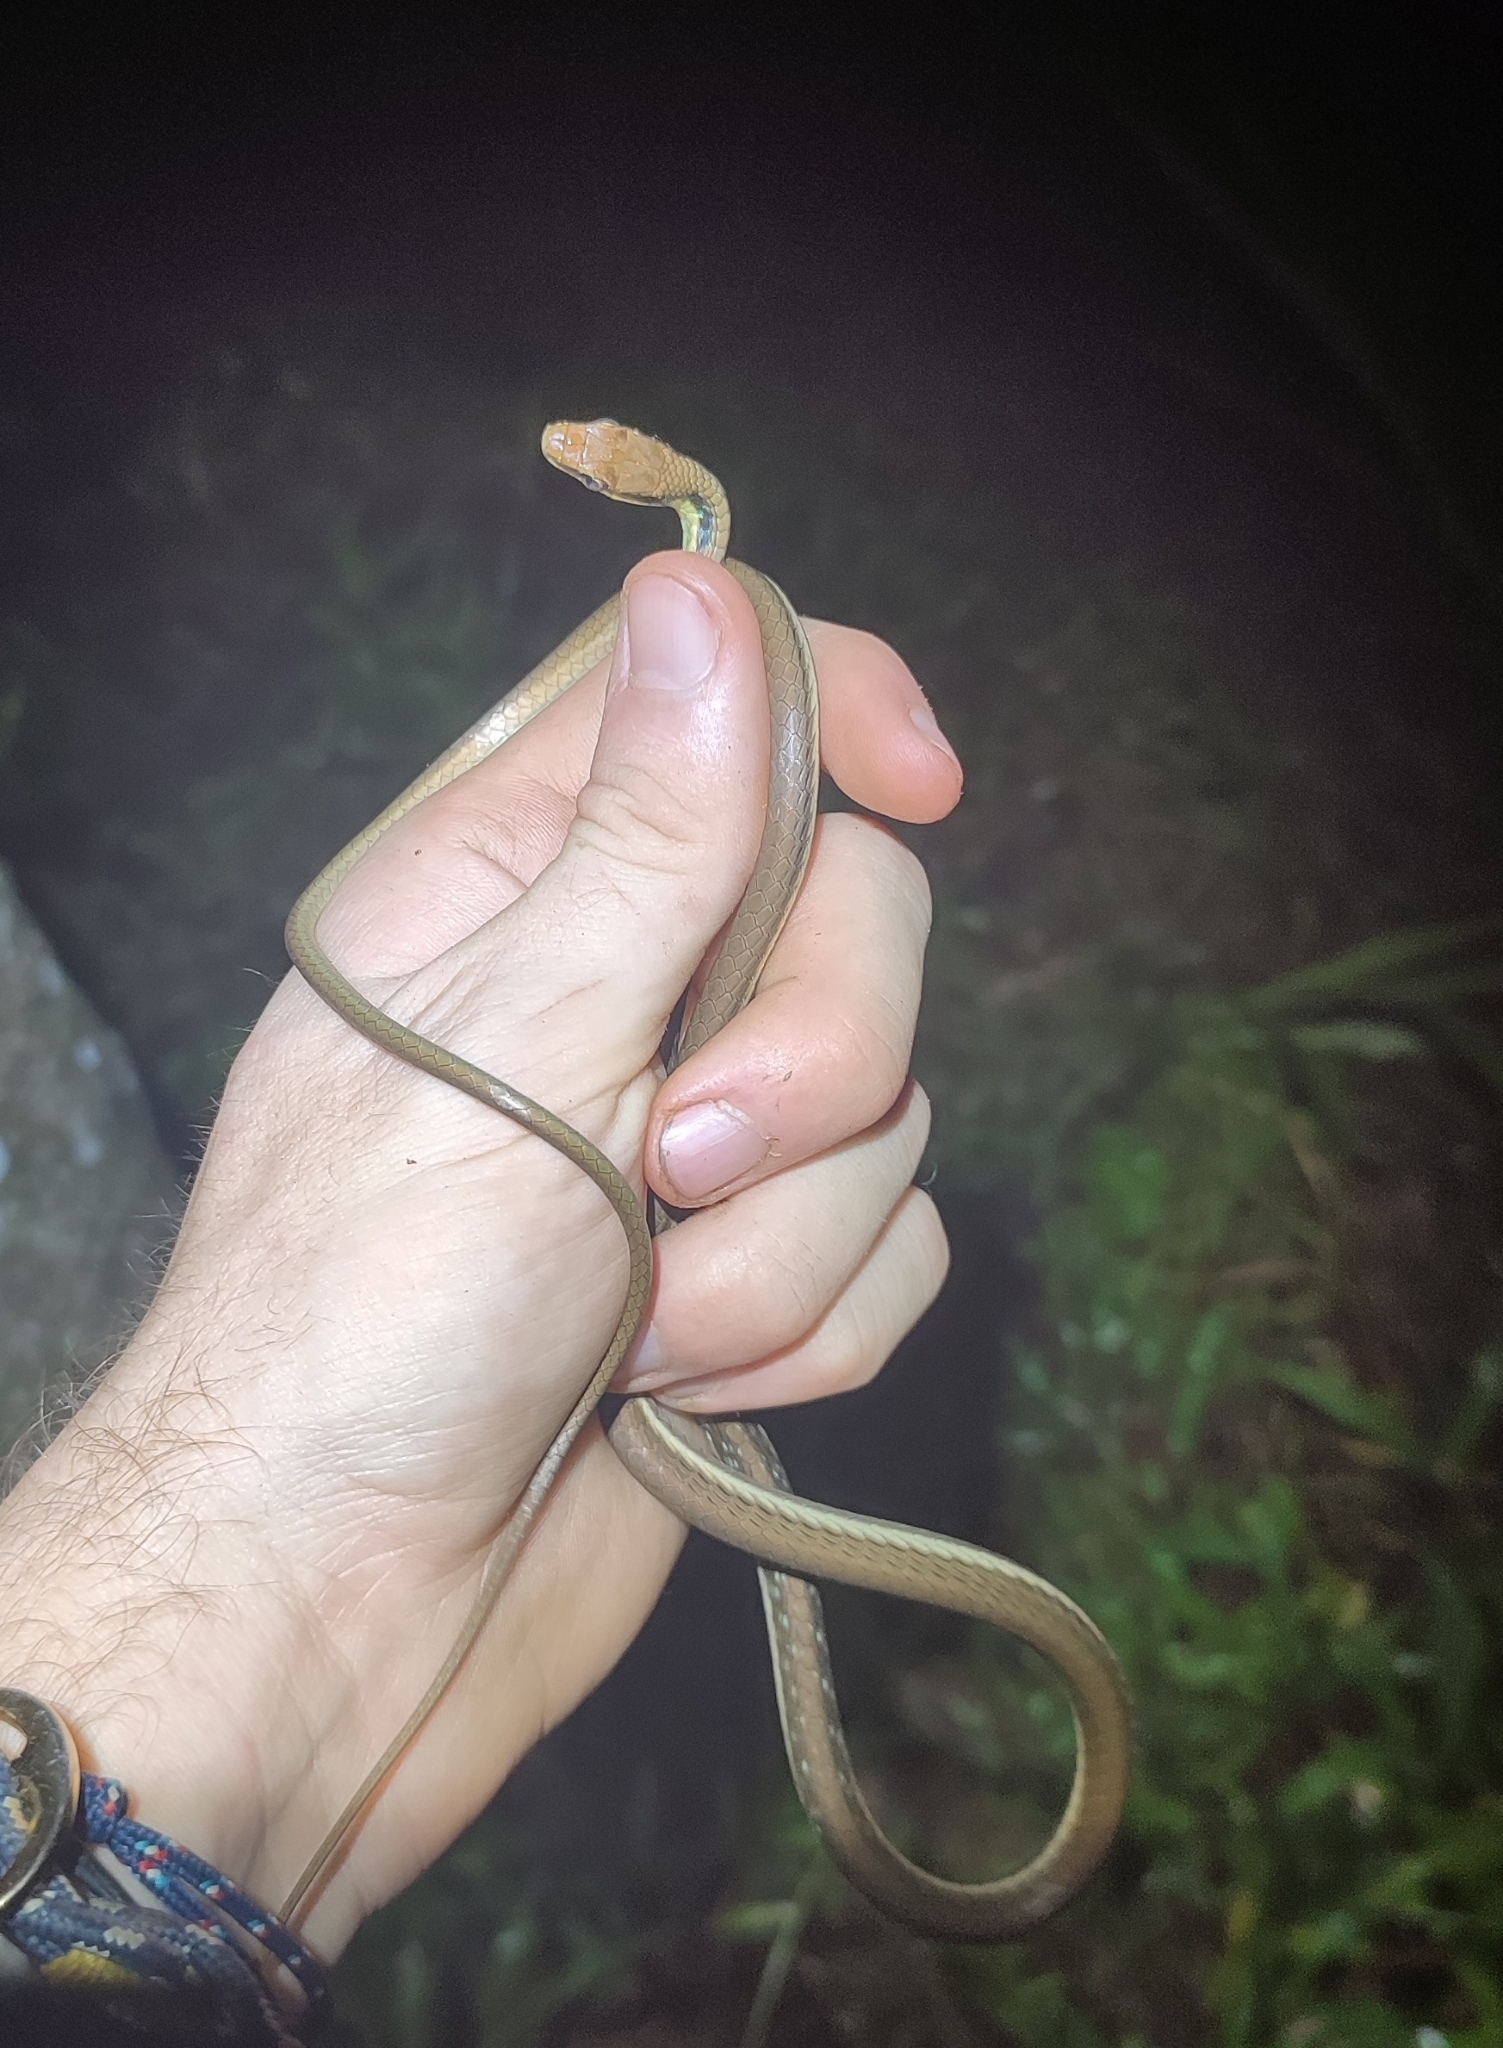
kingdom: Animalia
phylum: Chordata
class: Squamata
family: Colubridae
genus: Dendrelaphis
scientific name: Dendrelaphis pictus
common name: Indonesian bronze-back
